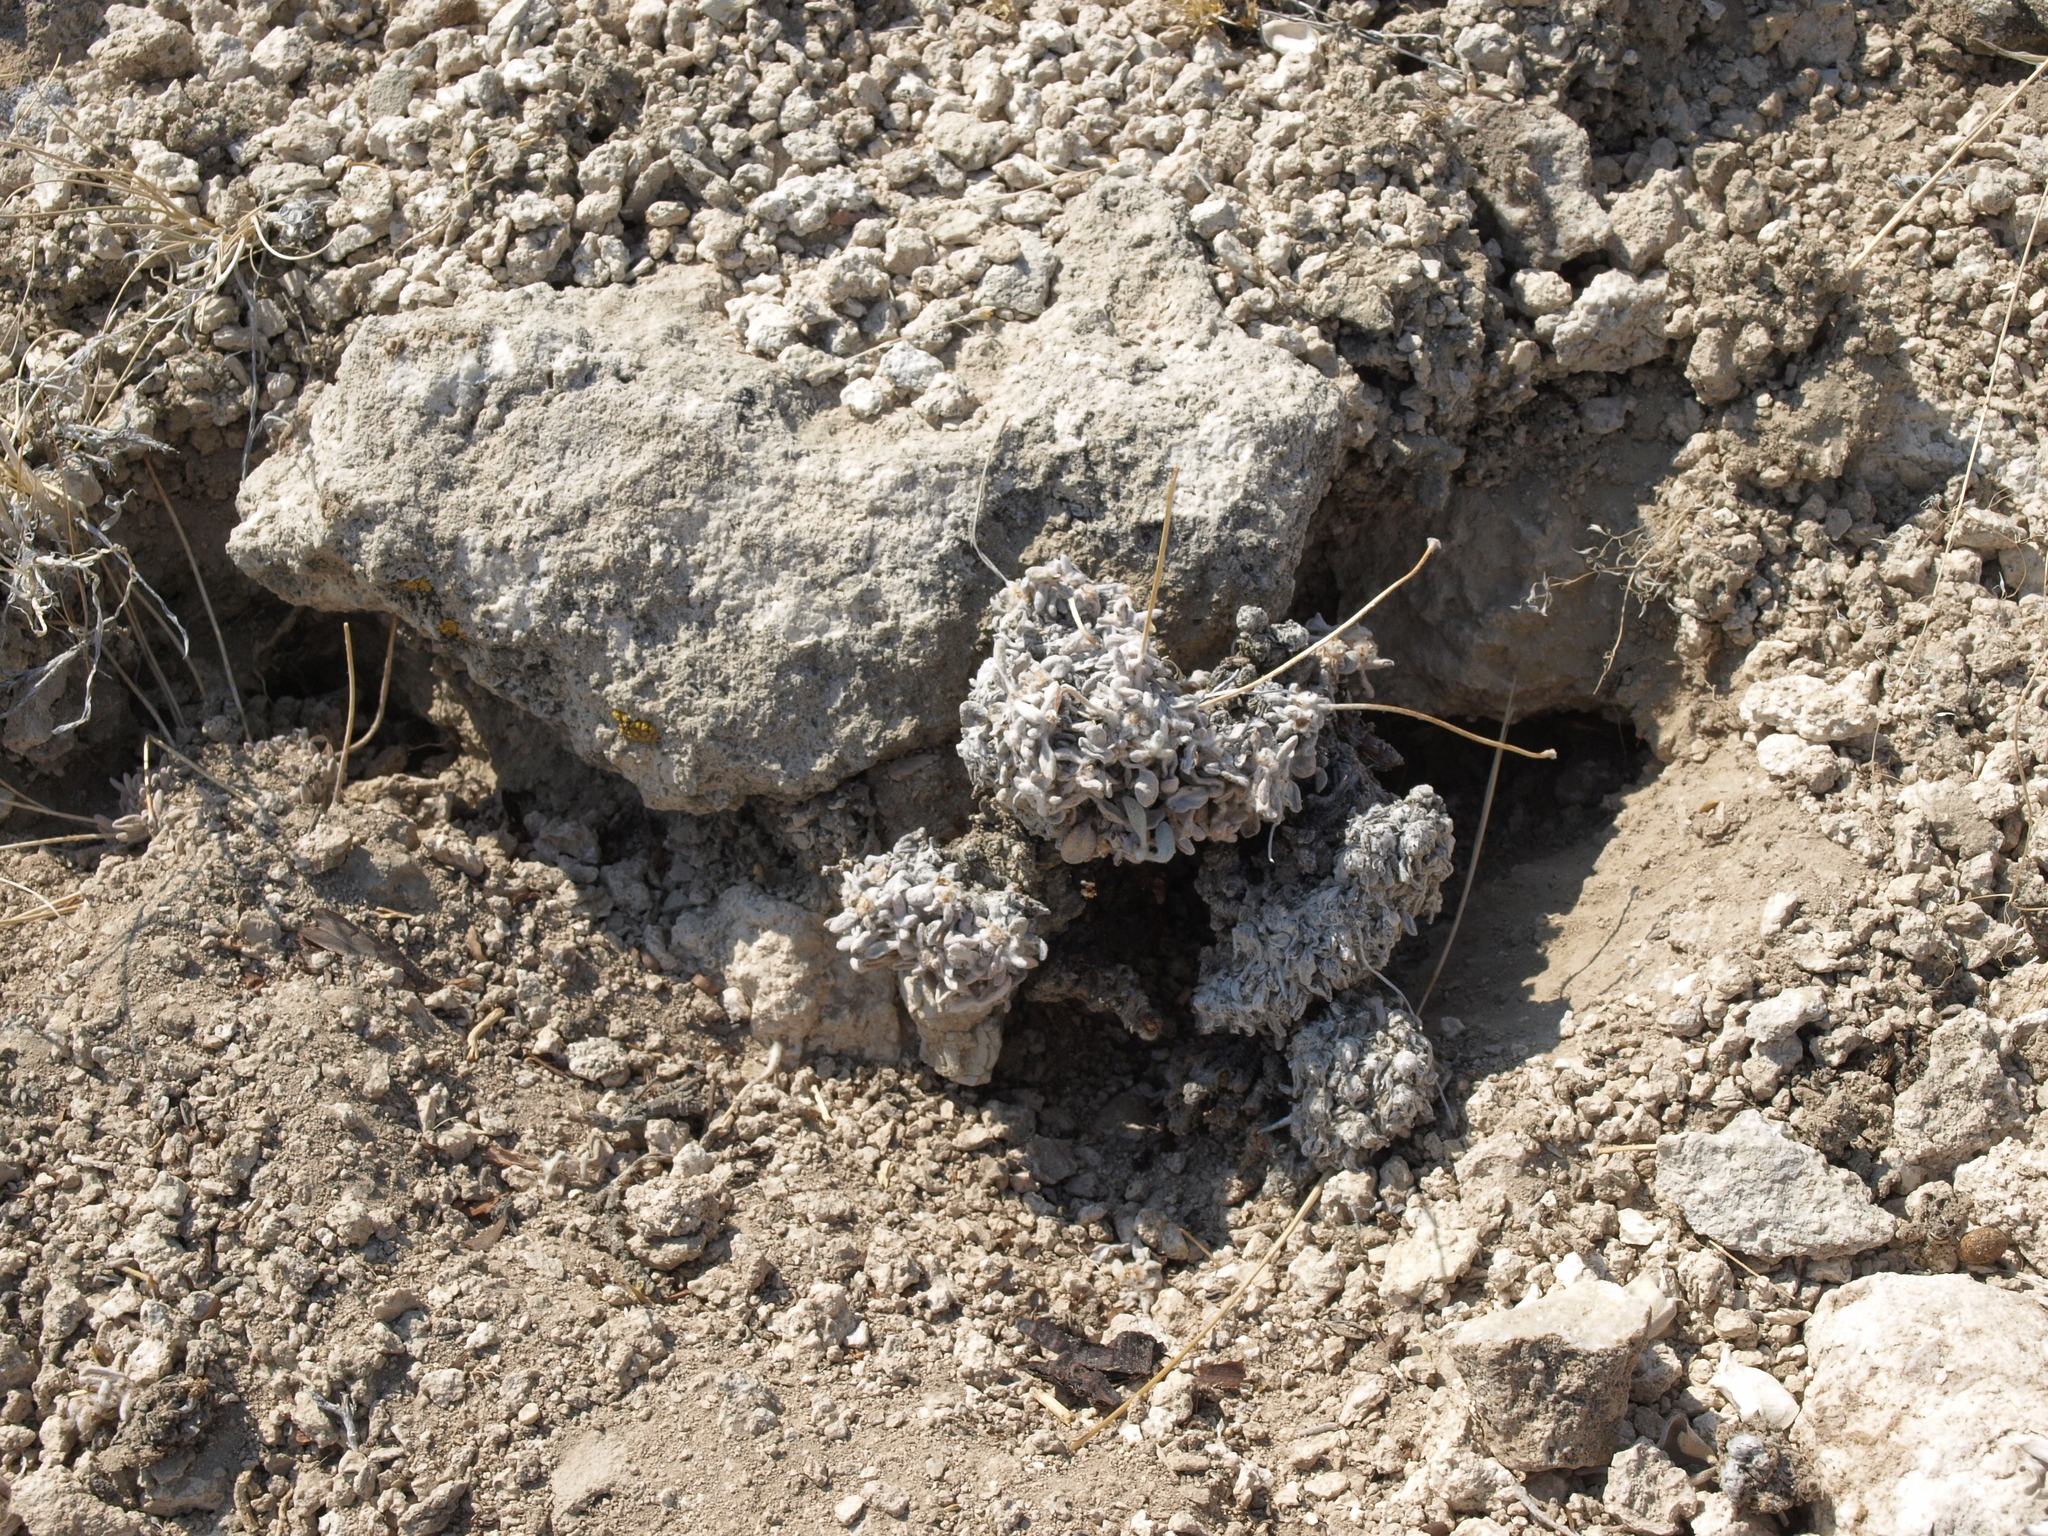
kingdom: Plantae
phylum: Tracheophyta
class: Magnoliopsida
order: Caryophyllales
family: Polygonaceae
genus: Eriogonum
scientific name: Eriogonum tiehmii
